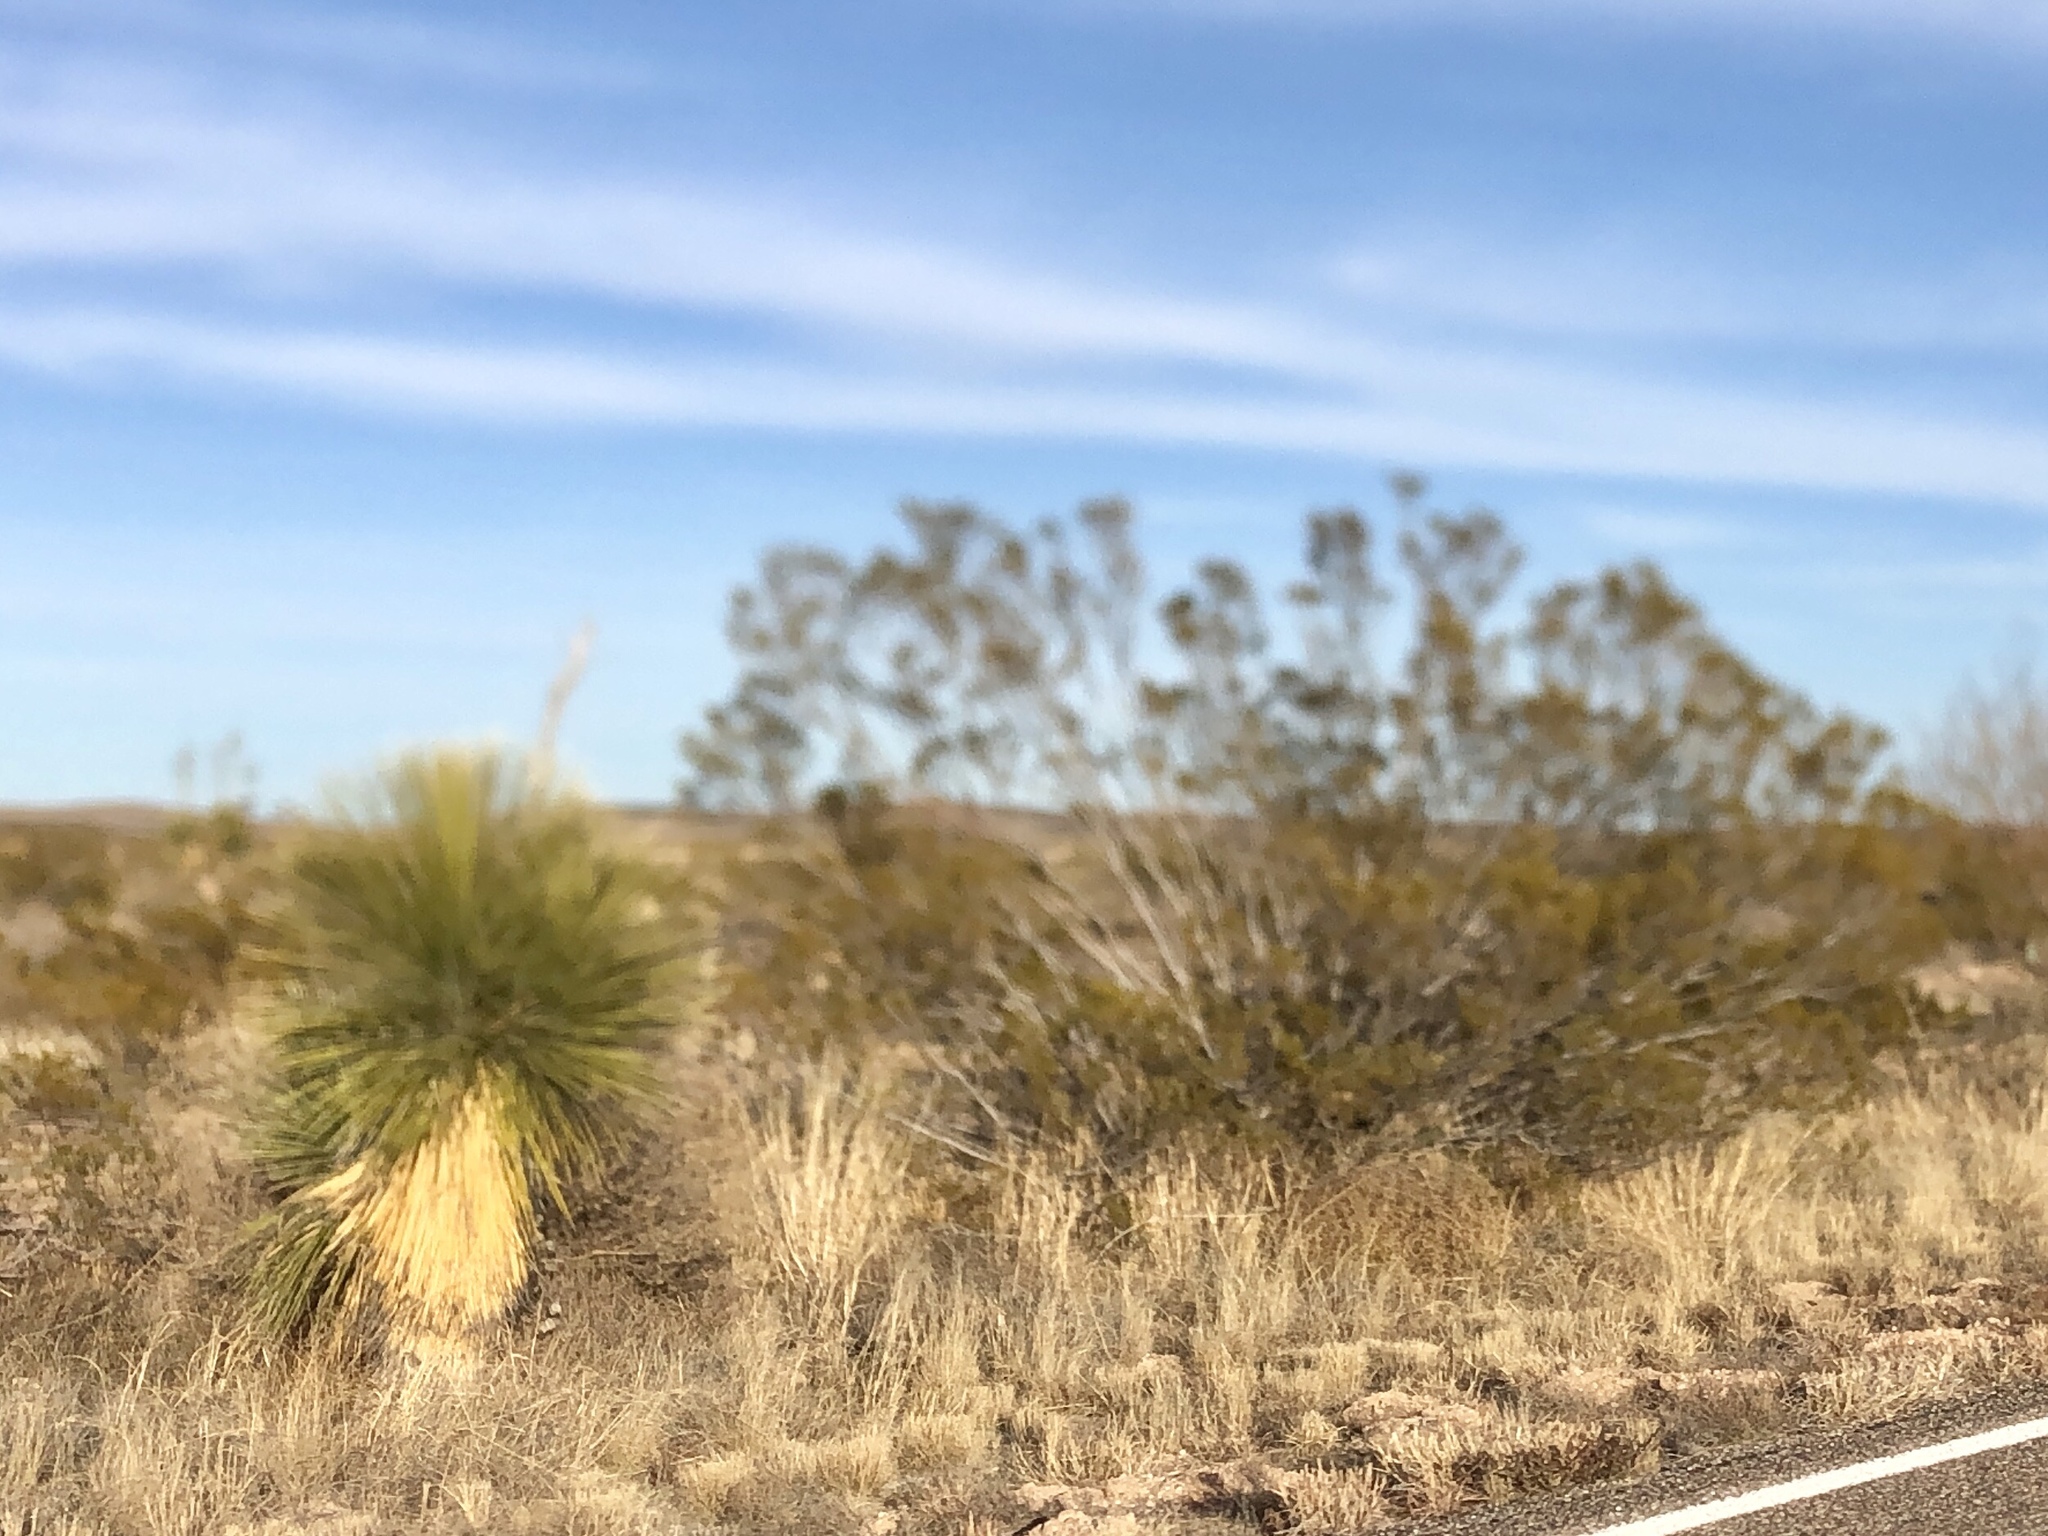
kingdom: Plantae
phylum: Tracheophyta
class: Magnoliopsida
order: Zygophyllales
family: Zygophyllaceae
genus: Larrea
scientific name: Larrea tridentata
